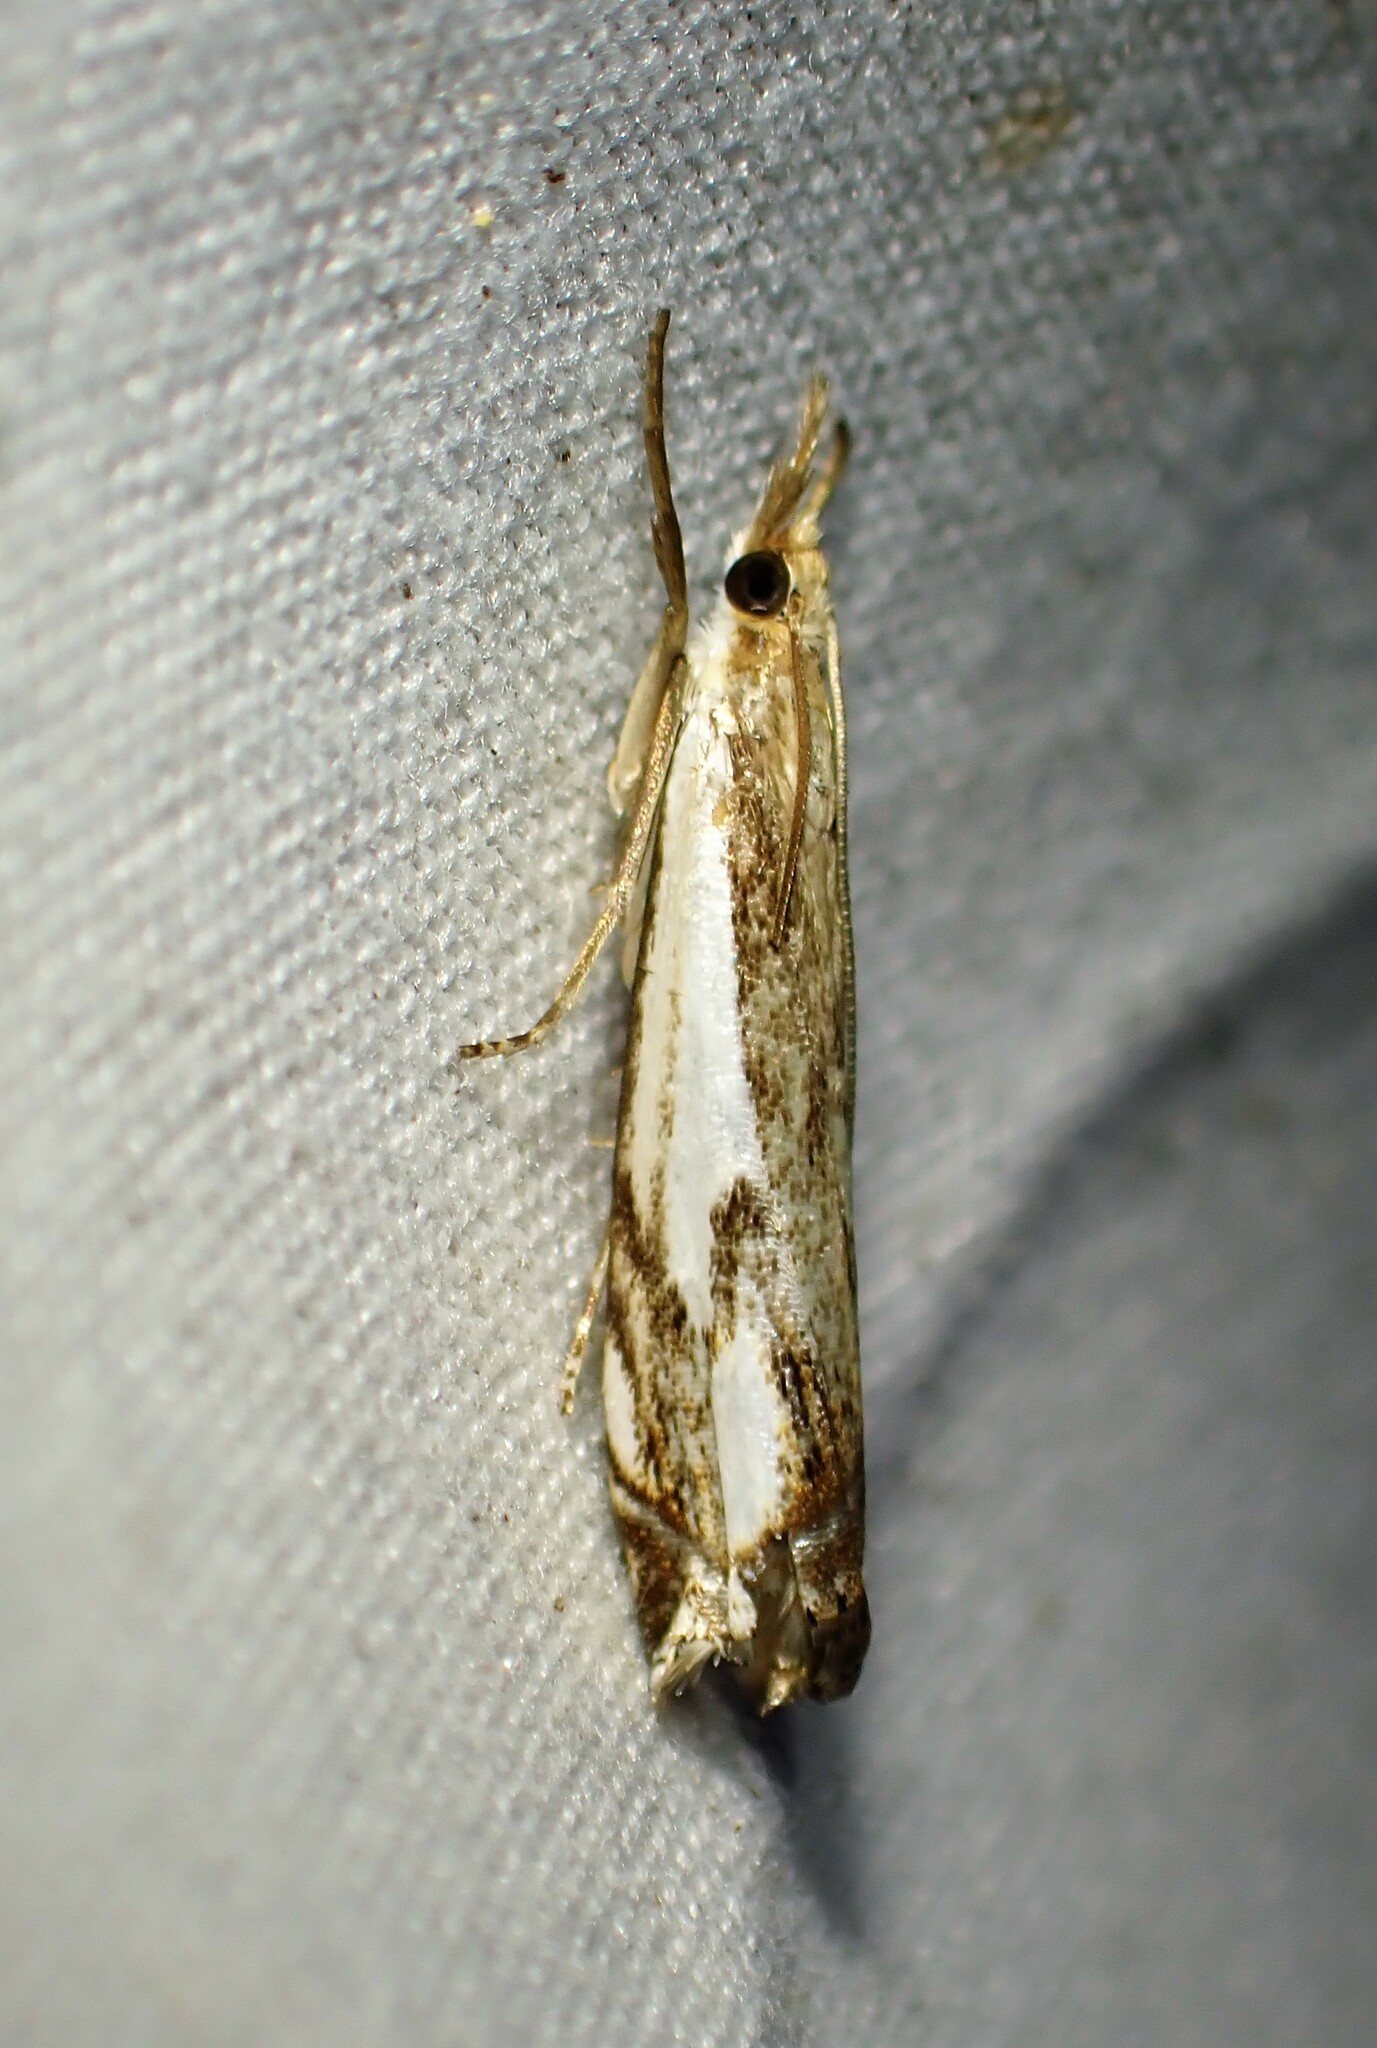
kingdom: Animalia
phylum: Arthropoda
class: Insecta
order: Lepidoptera
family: Crambidae
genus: Crambus
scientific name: Crambus agitatellus
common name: Double-banded grass-veneer
